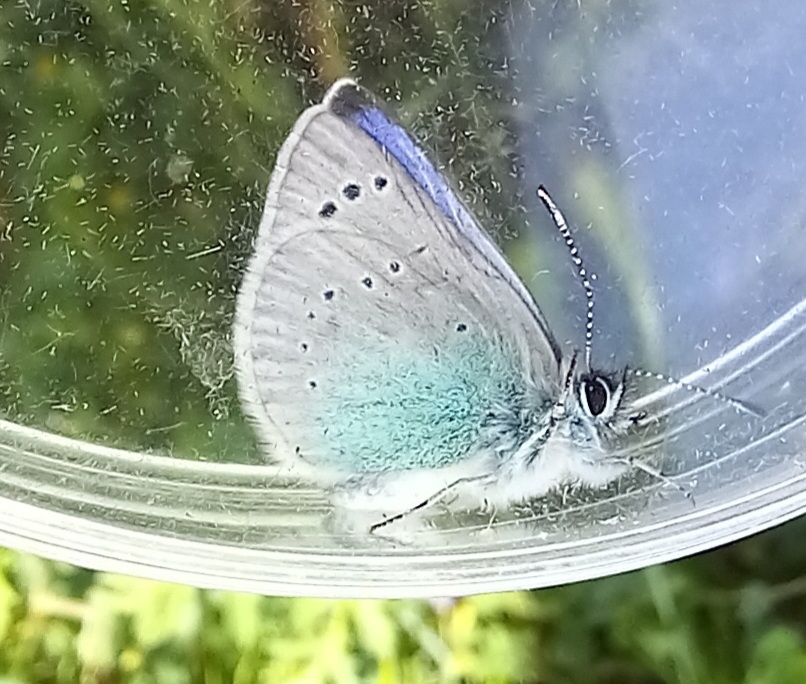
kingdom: Animalia
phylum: Arthropoda
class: Insecta
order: Lepidoptera
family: Lycaenidae
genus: Glaucopsyche
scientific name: Glaucopsyche alexis
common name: Green-underside blue
